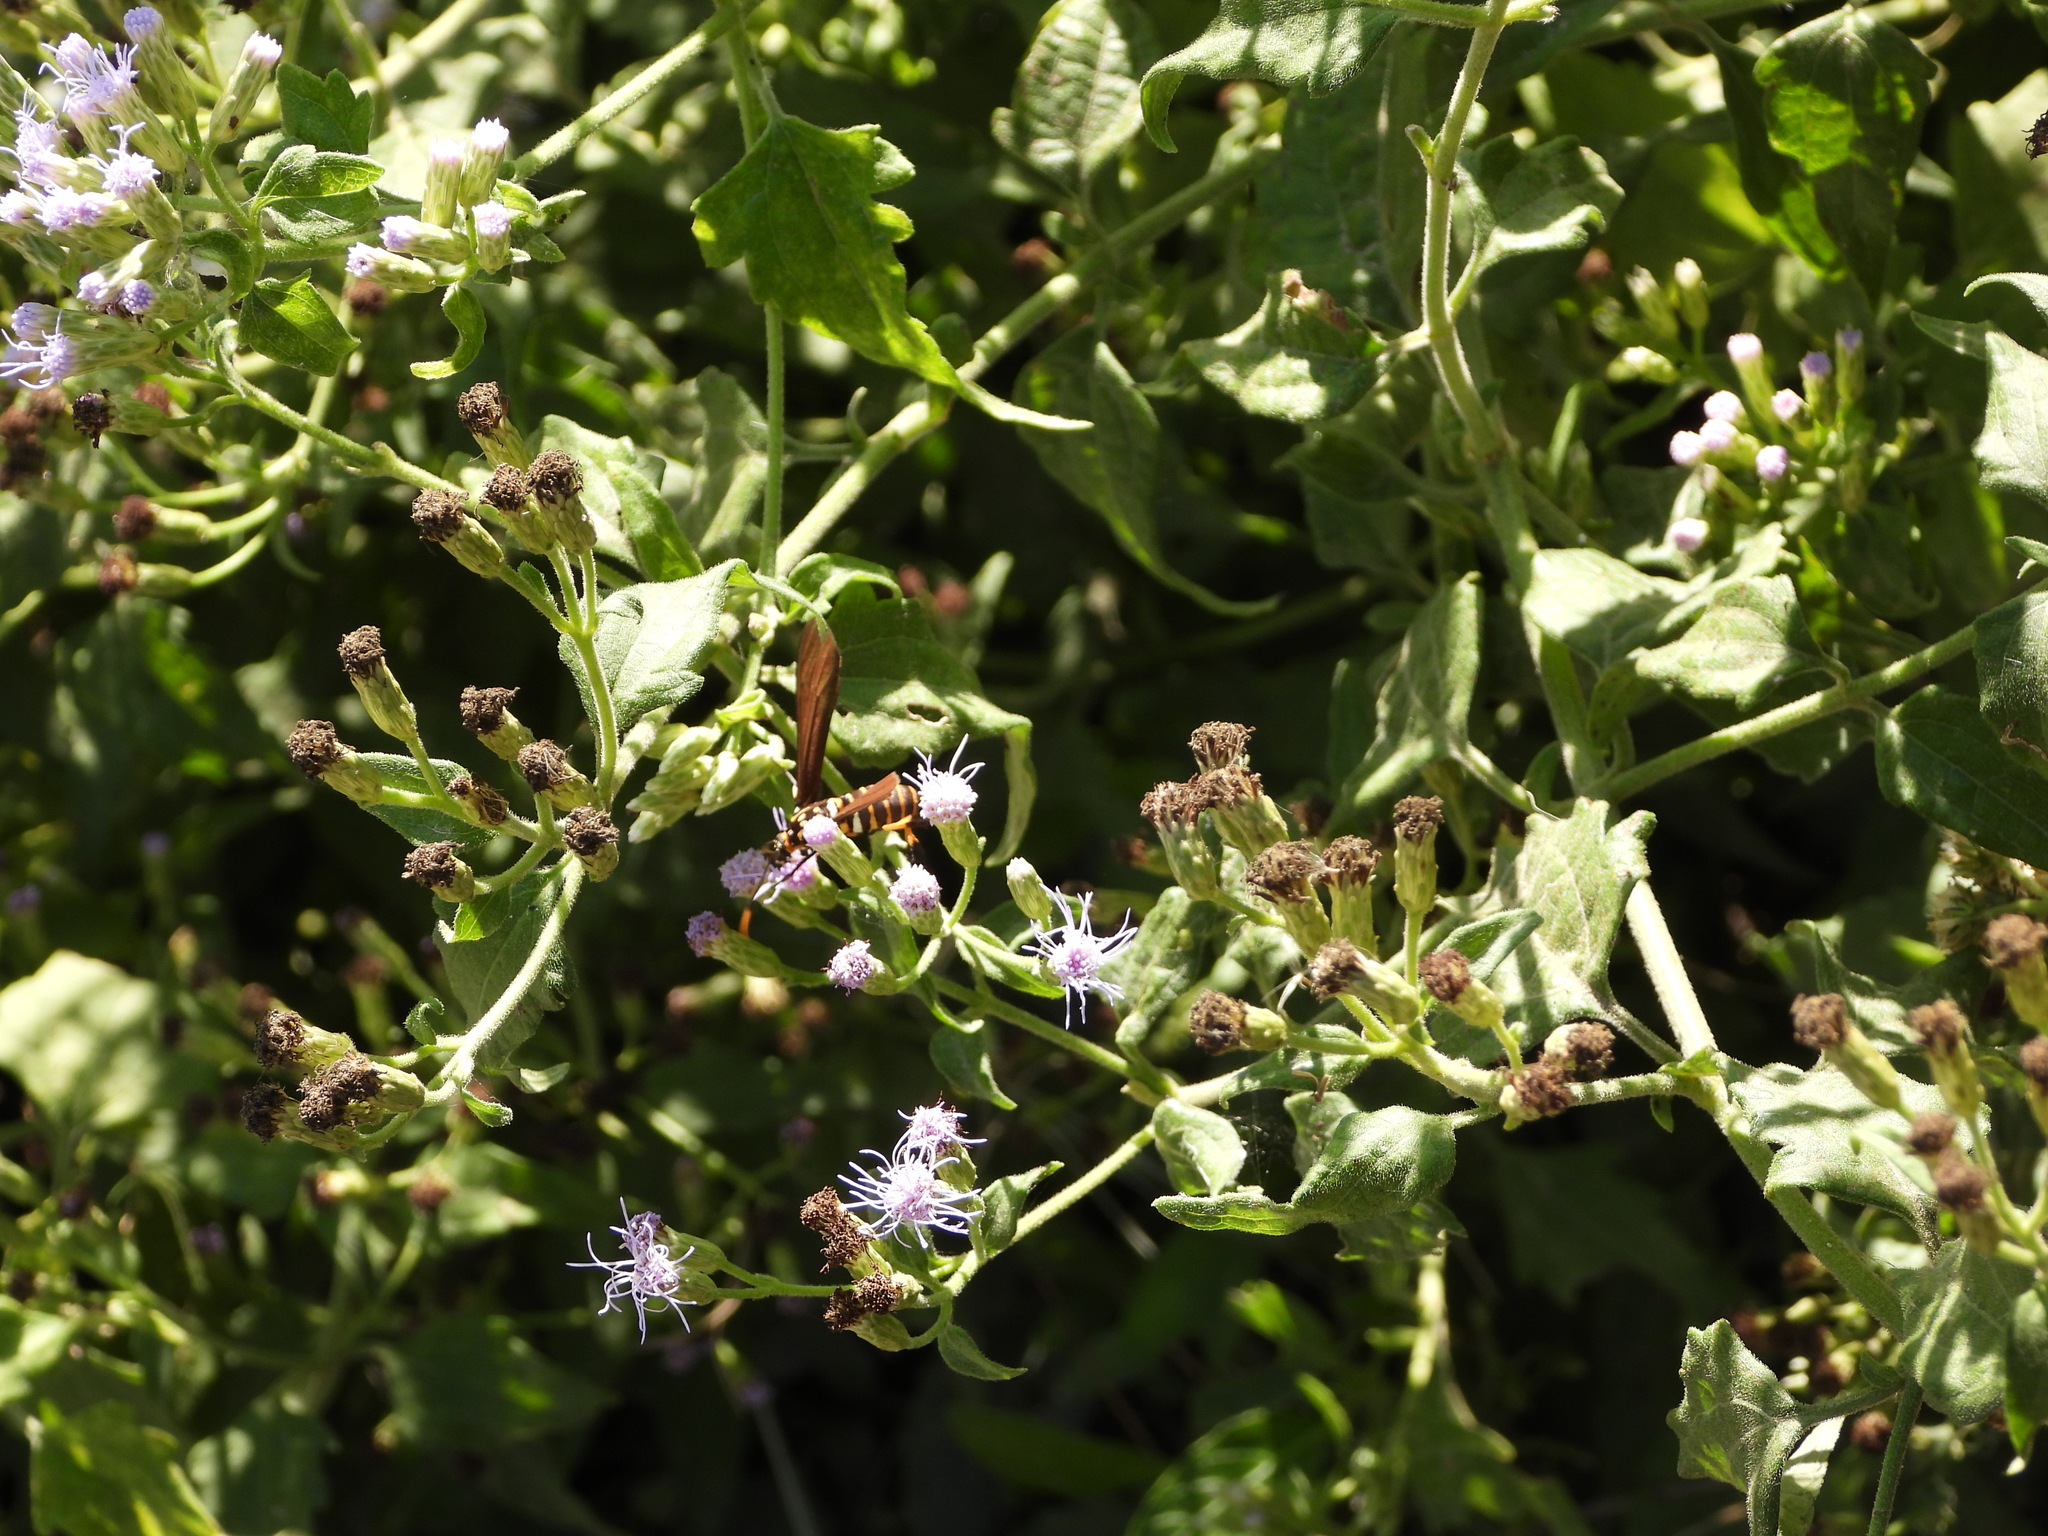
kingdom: Animalia
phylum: Arthropoda
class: Insecta
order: Lepidoptera
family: Erebidae
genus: Horama
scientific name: Horama panthalon
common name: Texas wasp moth
